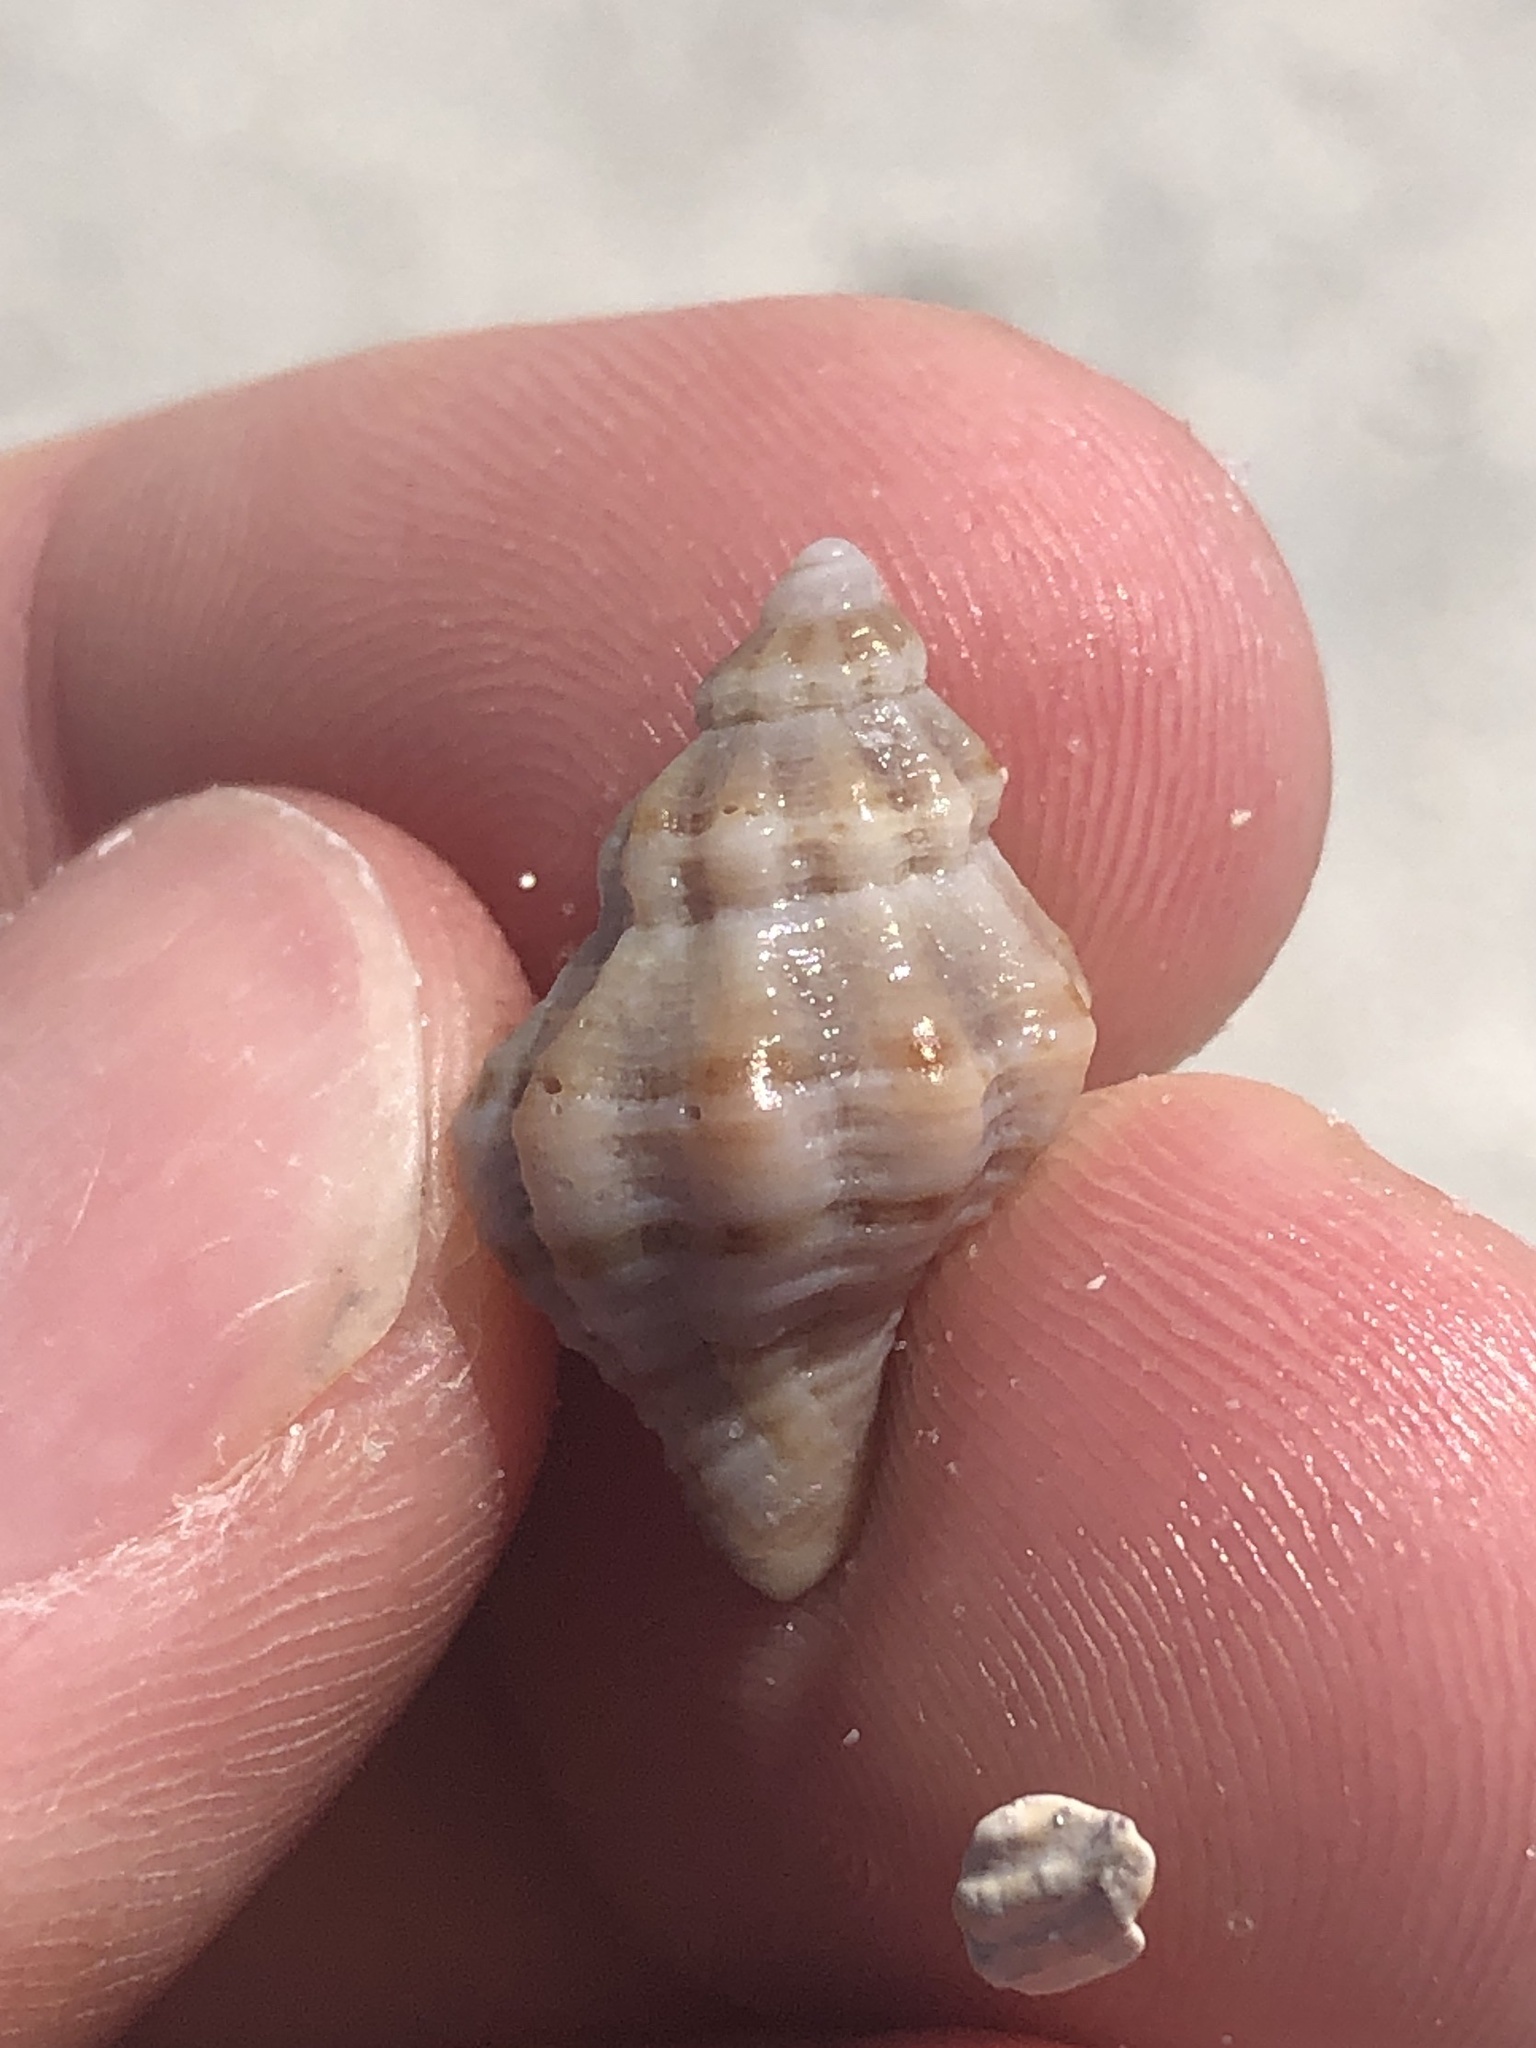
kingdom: Animalia
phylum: Mollusca
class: Gastropoda
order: Neogastropoda
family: Muricidae
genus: Vokesinotus
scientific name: Vokesinotus perrugatus
